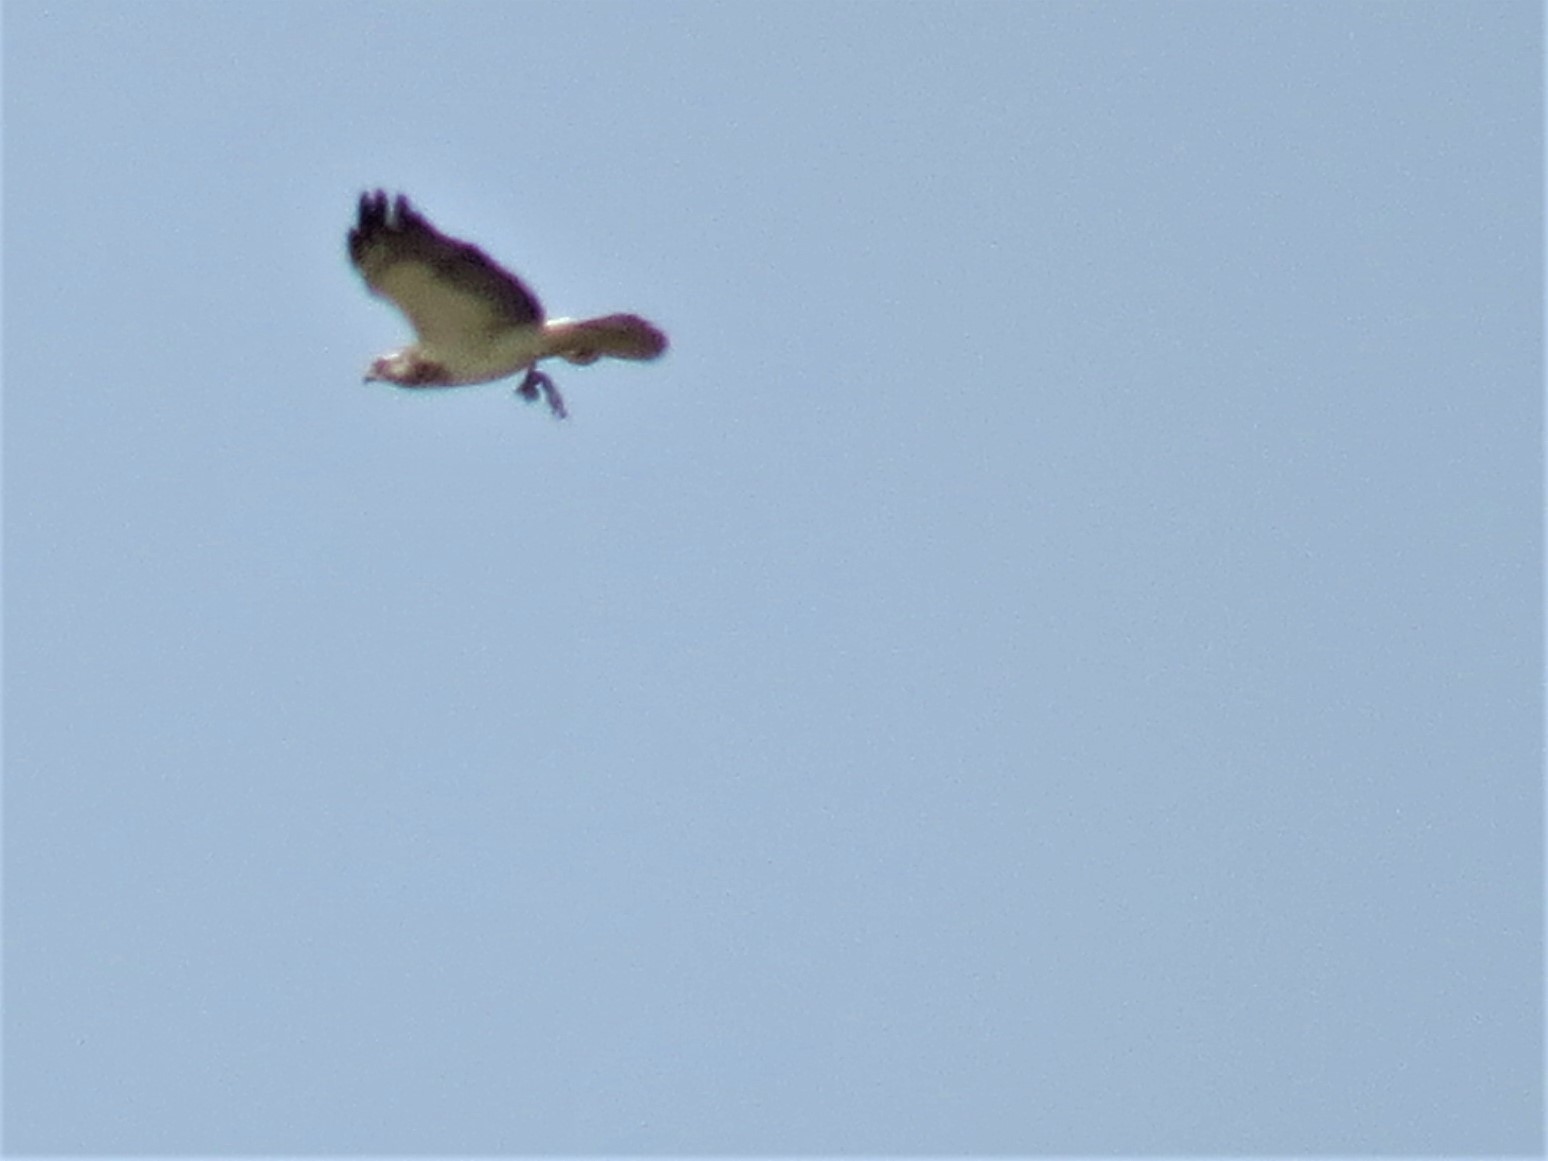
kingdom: Animalia
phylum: Chordata
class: Aves
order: Accipitriformes
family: Accipitridae
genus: Buteo
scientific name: Buteo swainsoni
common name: Swainson's hawk
